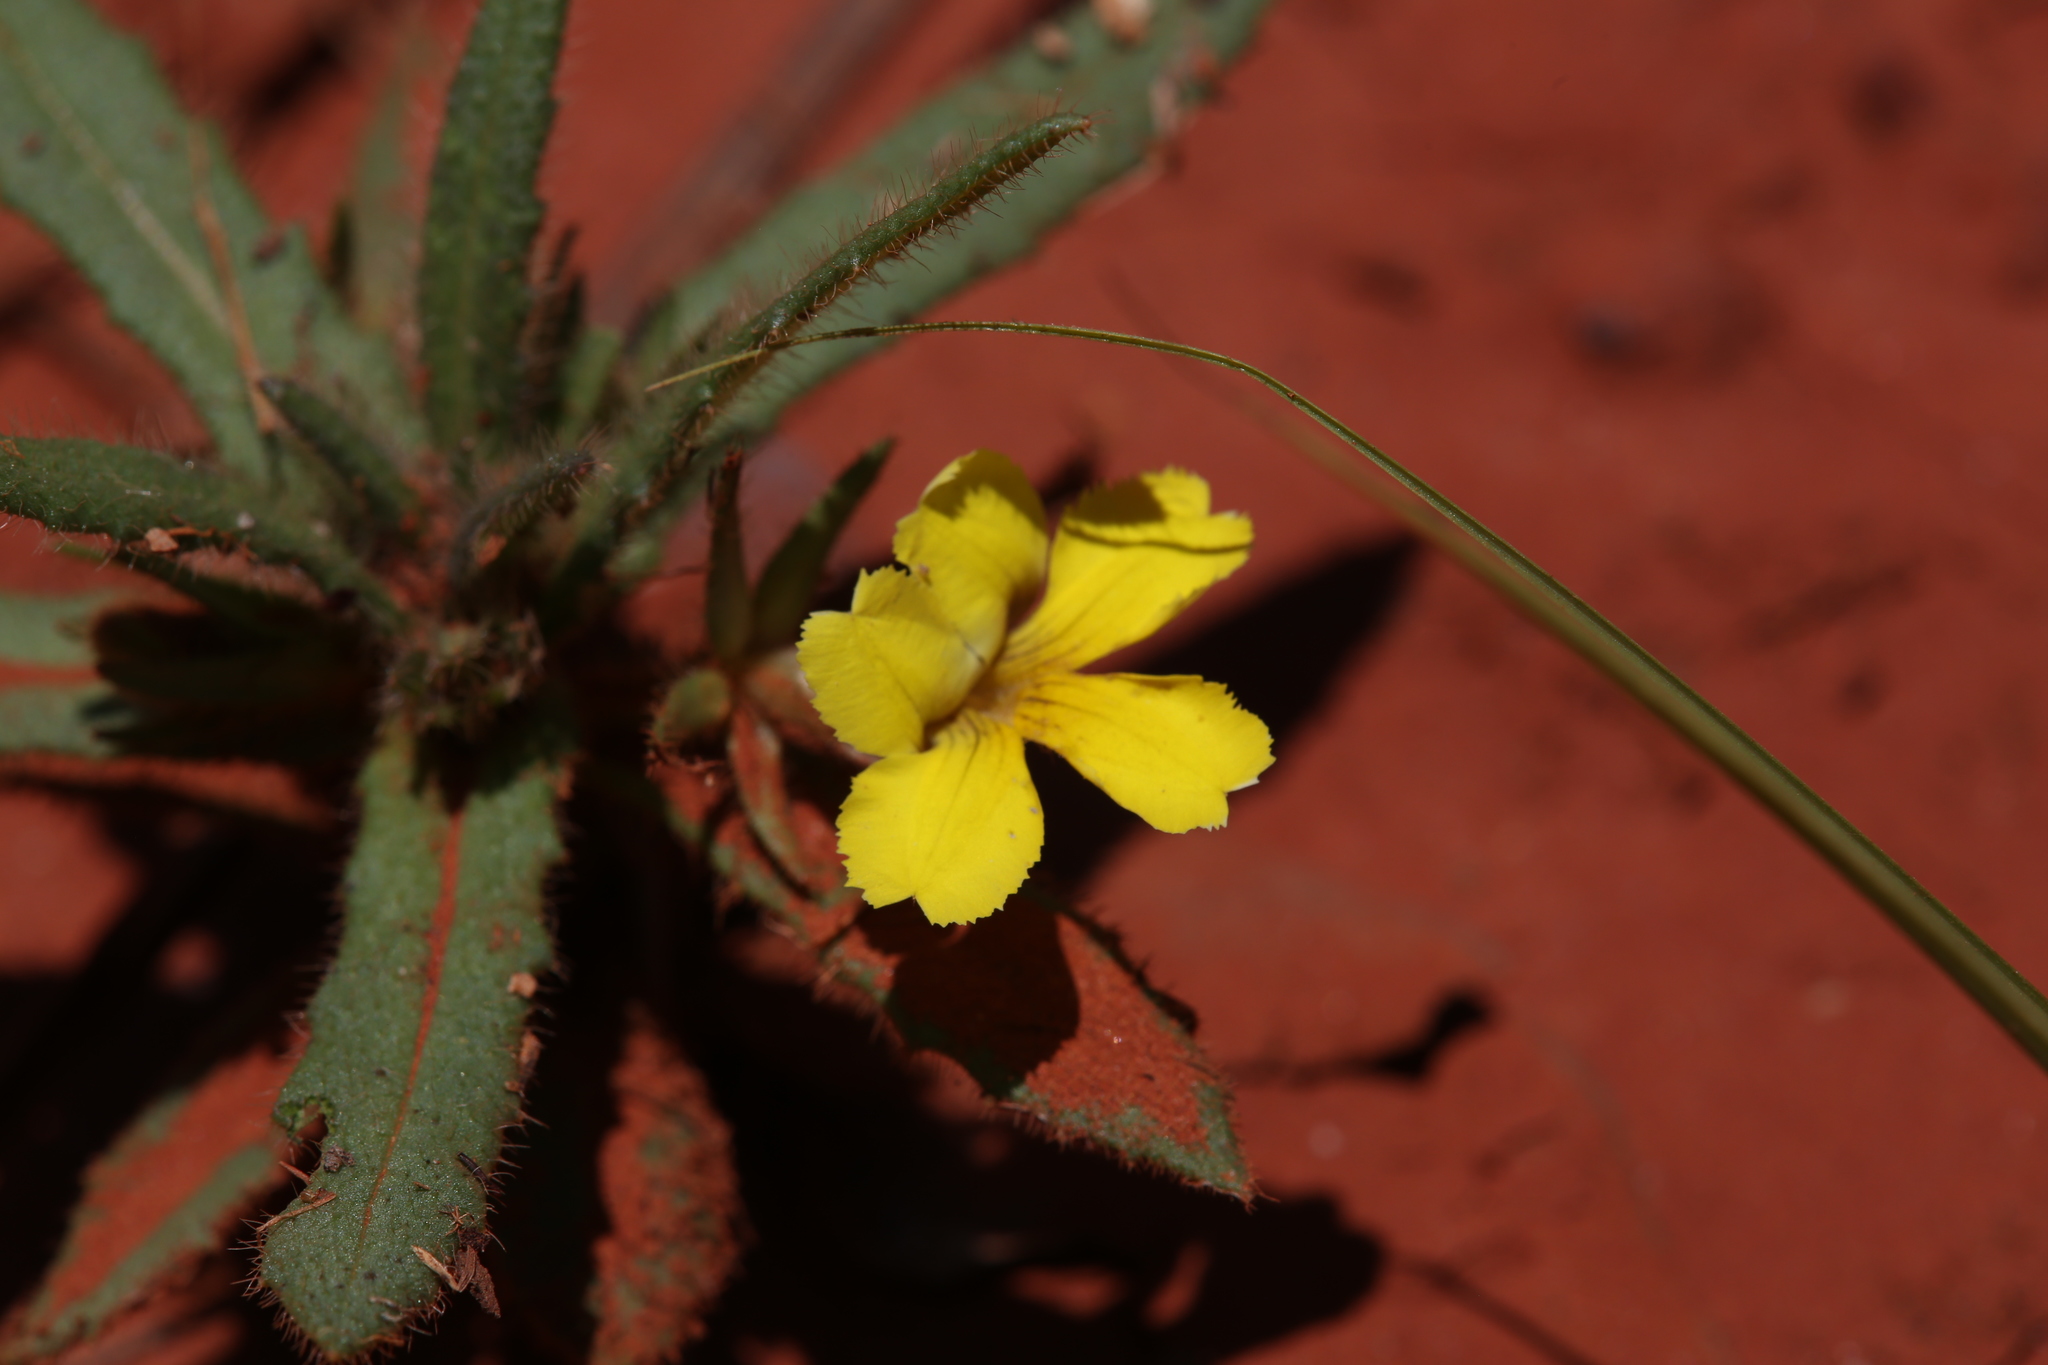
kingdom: Plantae
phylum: Tracheophyta
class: Magnoliopsida
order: Asterales
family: Goodeniaceae
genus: Goodenia
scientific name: Goodenia sepalosa
